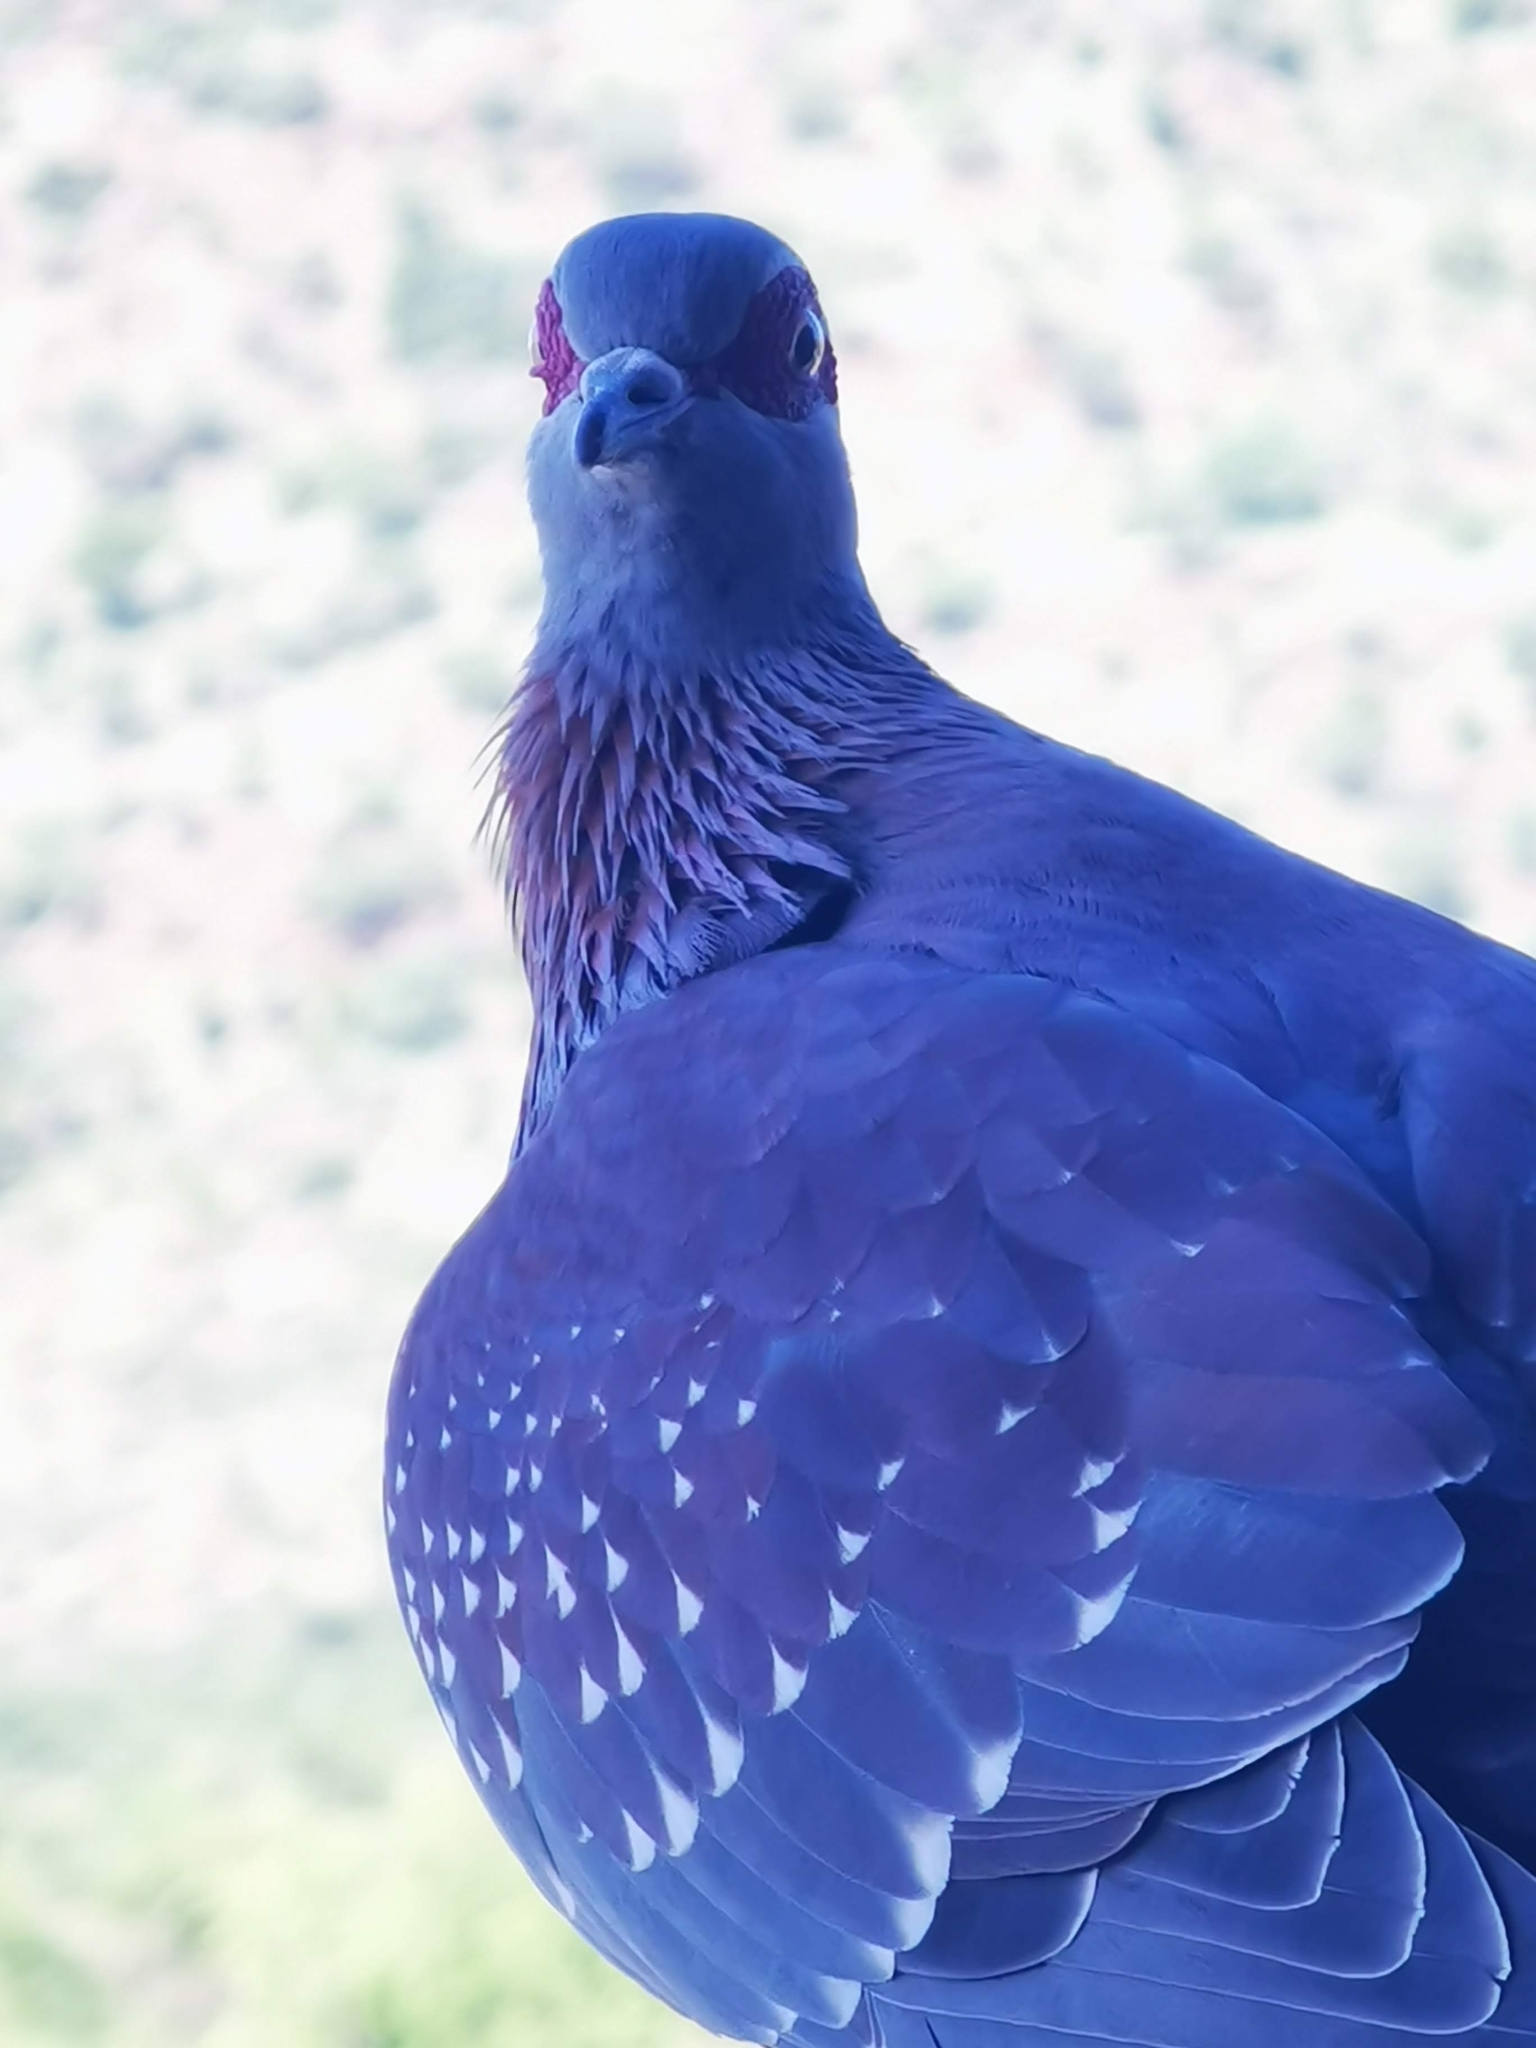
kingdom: Animalia
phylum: Chordata
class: Aves
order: Columbiformes
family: Columbidae
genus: Columba
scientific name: Columba guinea
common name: Speckled pigeon
